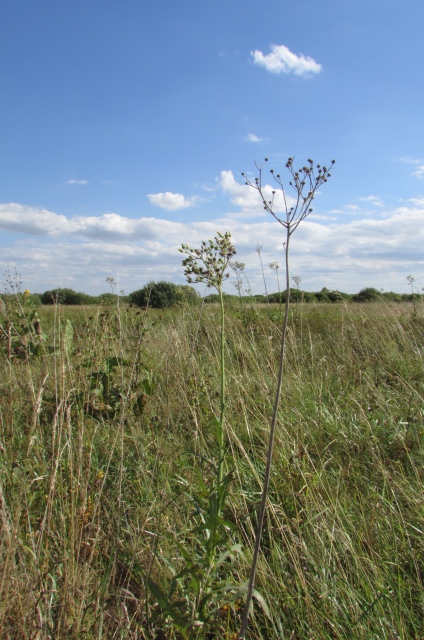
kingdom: Plantae
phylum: Tracheophyta
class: Magnoliopsida
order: Asterales
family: Asteraceae
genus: Sonchus
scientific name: Sonchus palustris
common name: Marsh sow-thistle
